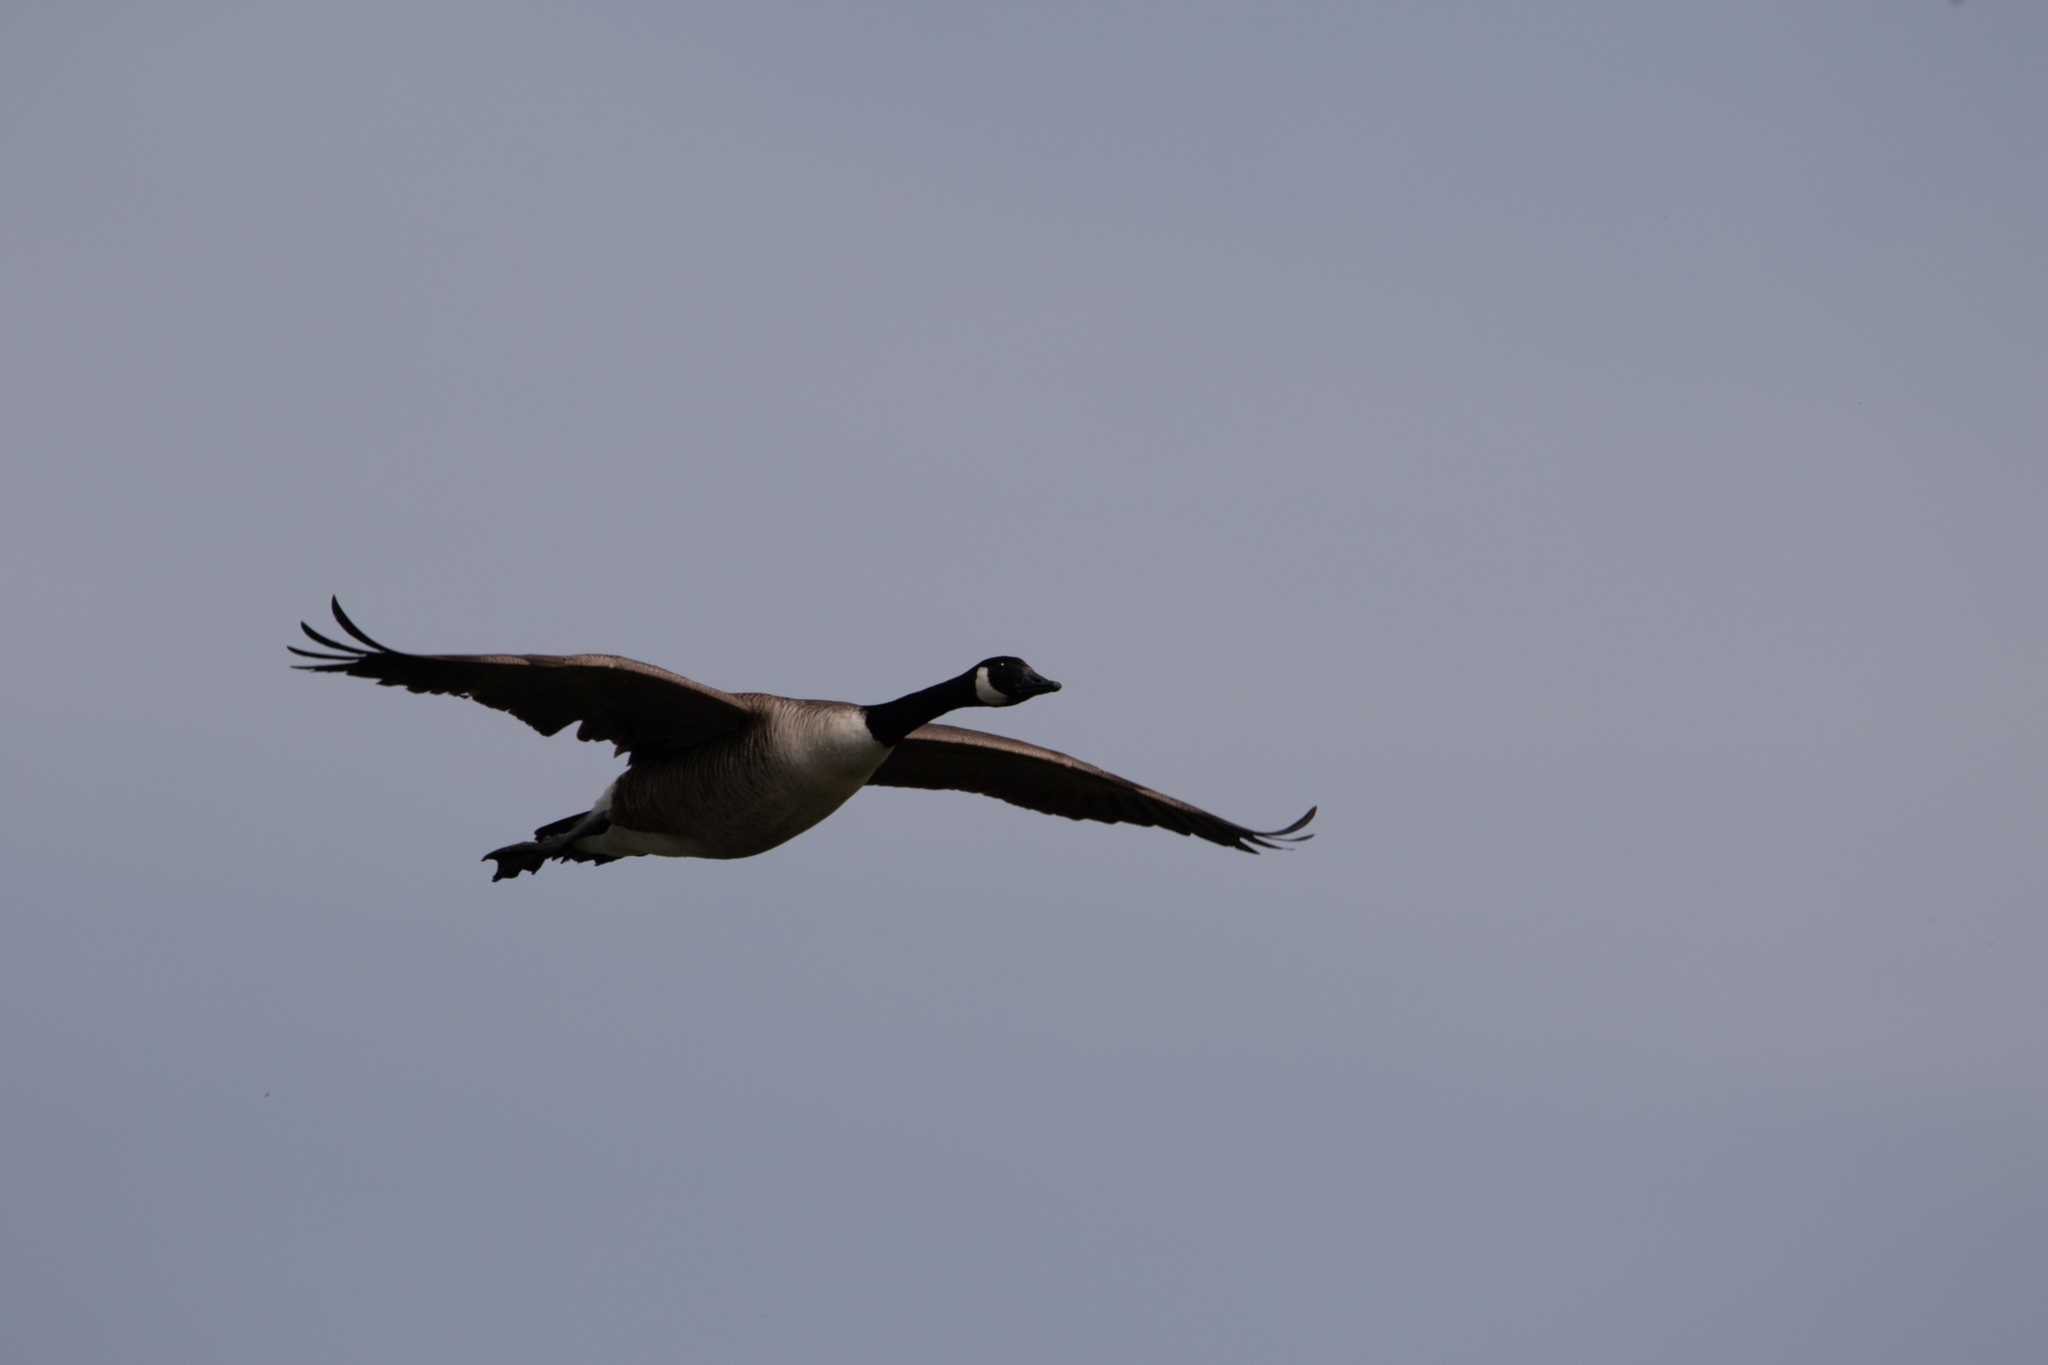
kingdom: Animalia
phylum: Chordata
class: Aves
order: Anseriformes
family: Anatidae
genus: Branta
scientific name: Branta canadensis
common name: Canada goose
